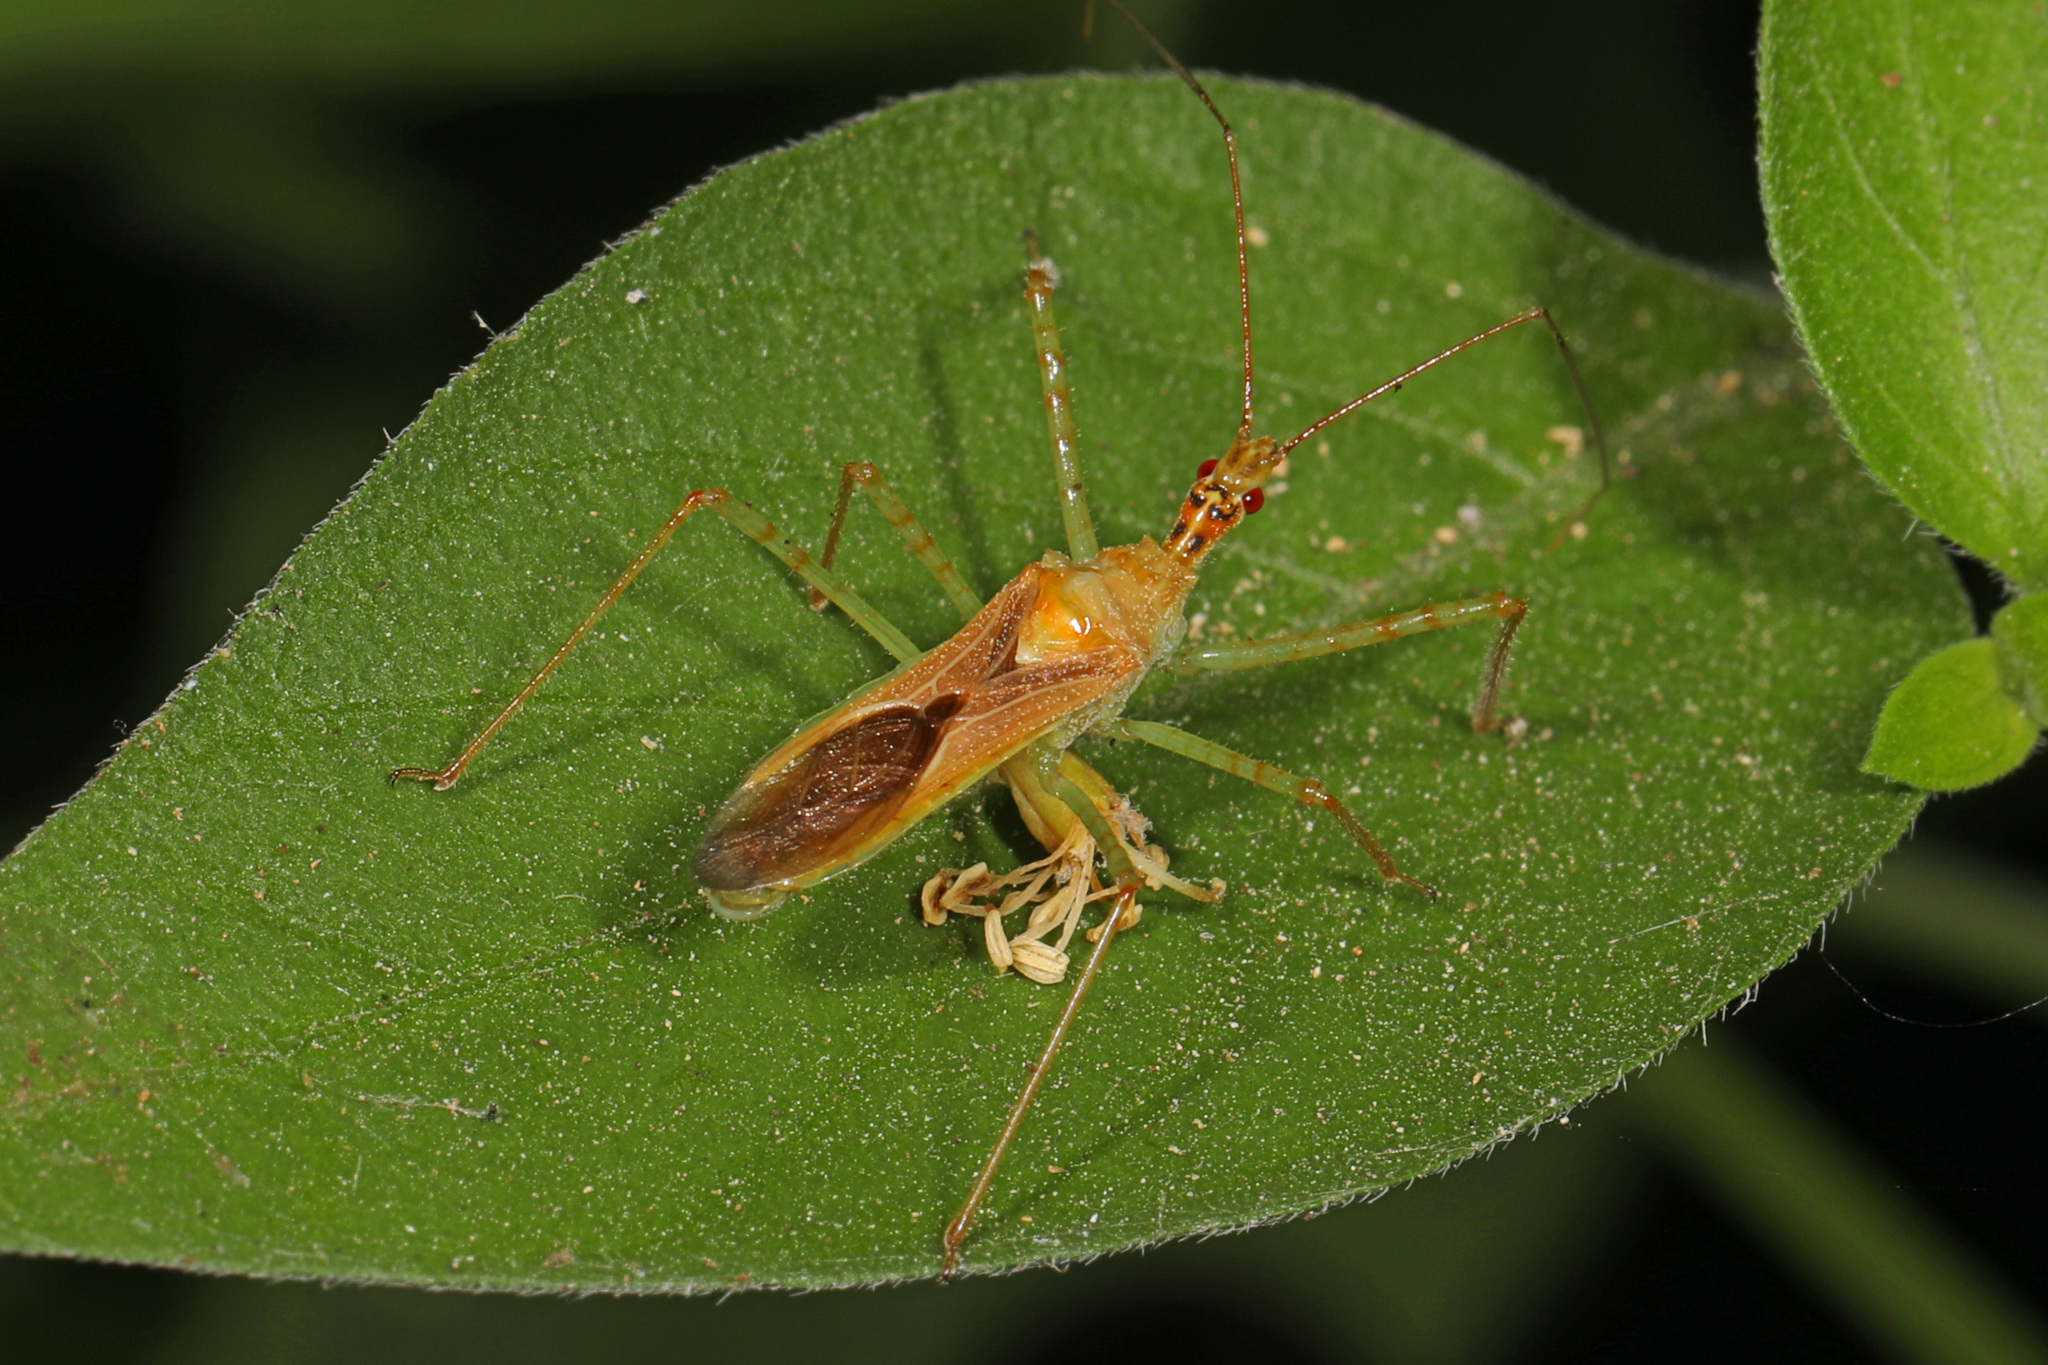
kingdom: Animalia
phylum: Arthropoda
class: Insecta
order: Hemiptera
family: Reduviidae
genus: Zelus
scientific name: Zelus renardii
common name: Assassin bug
